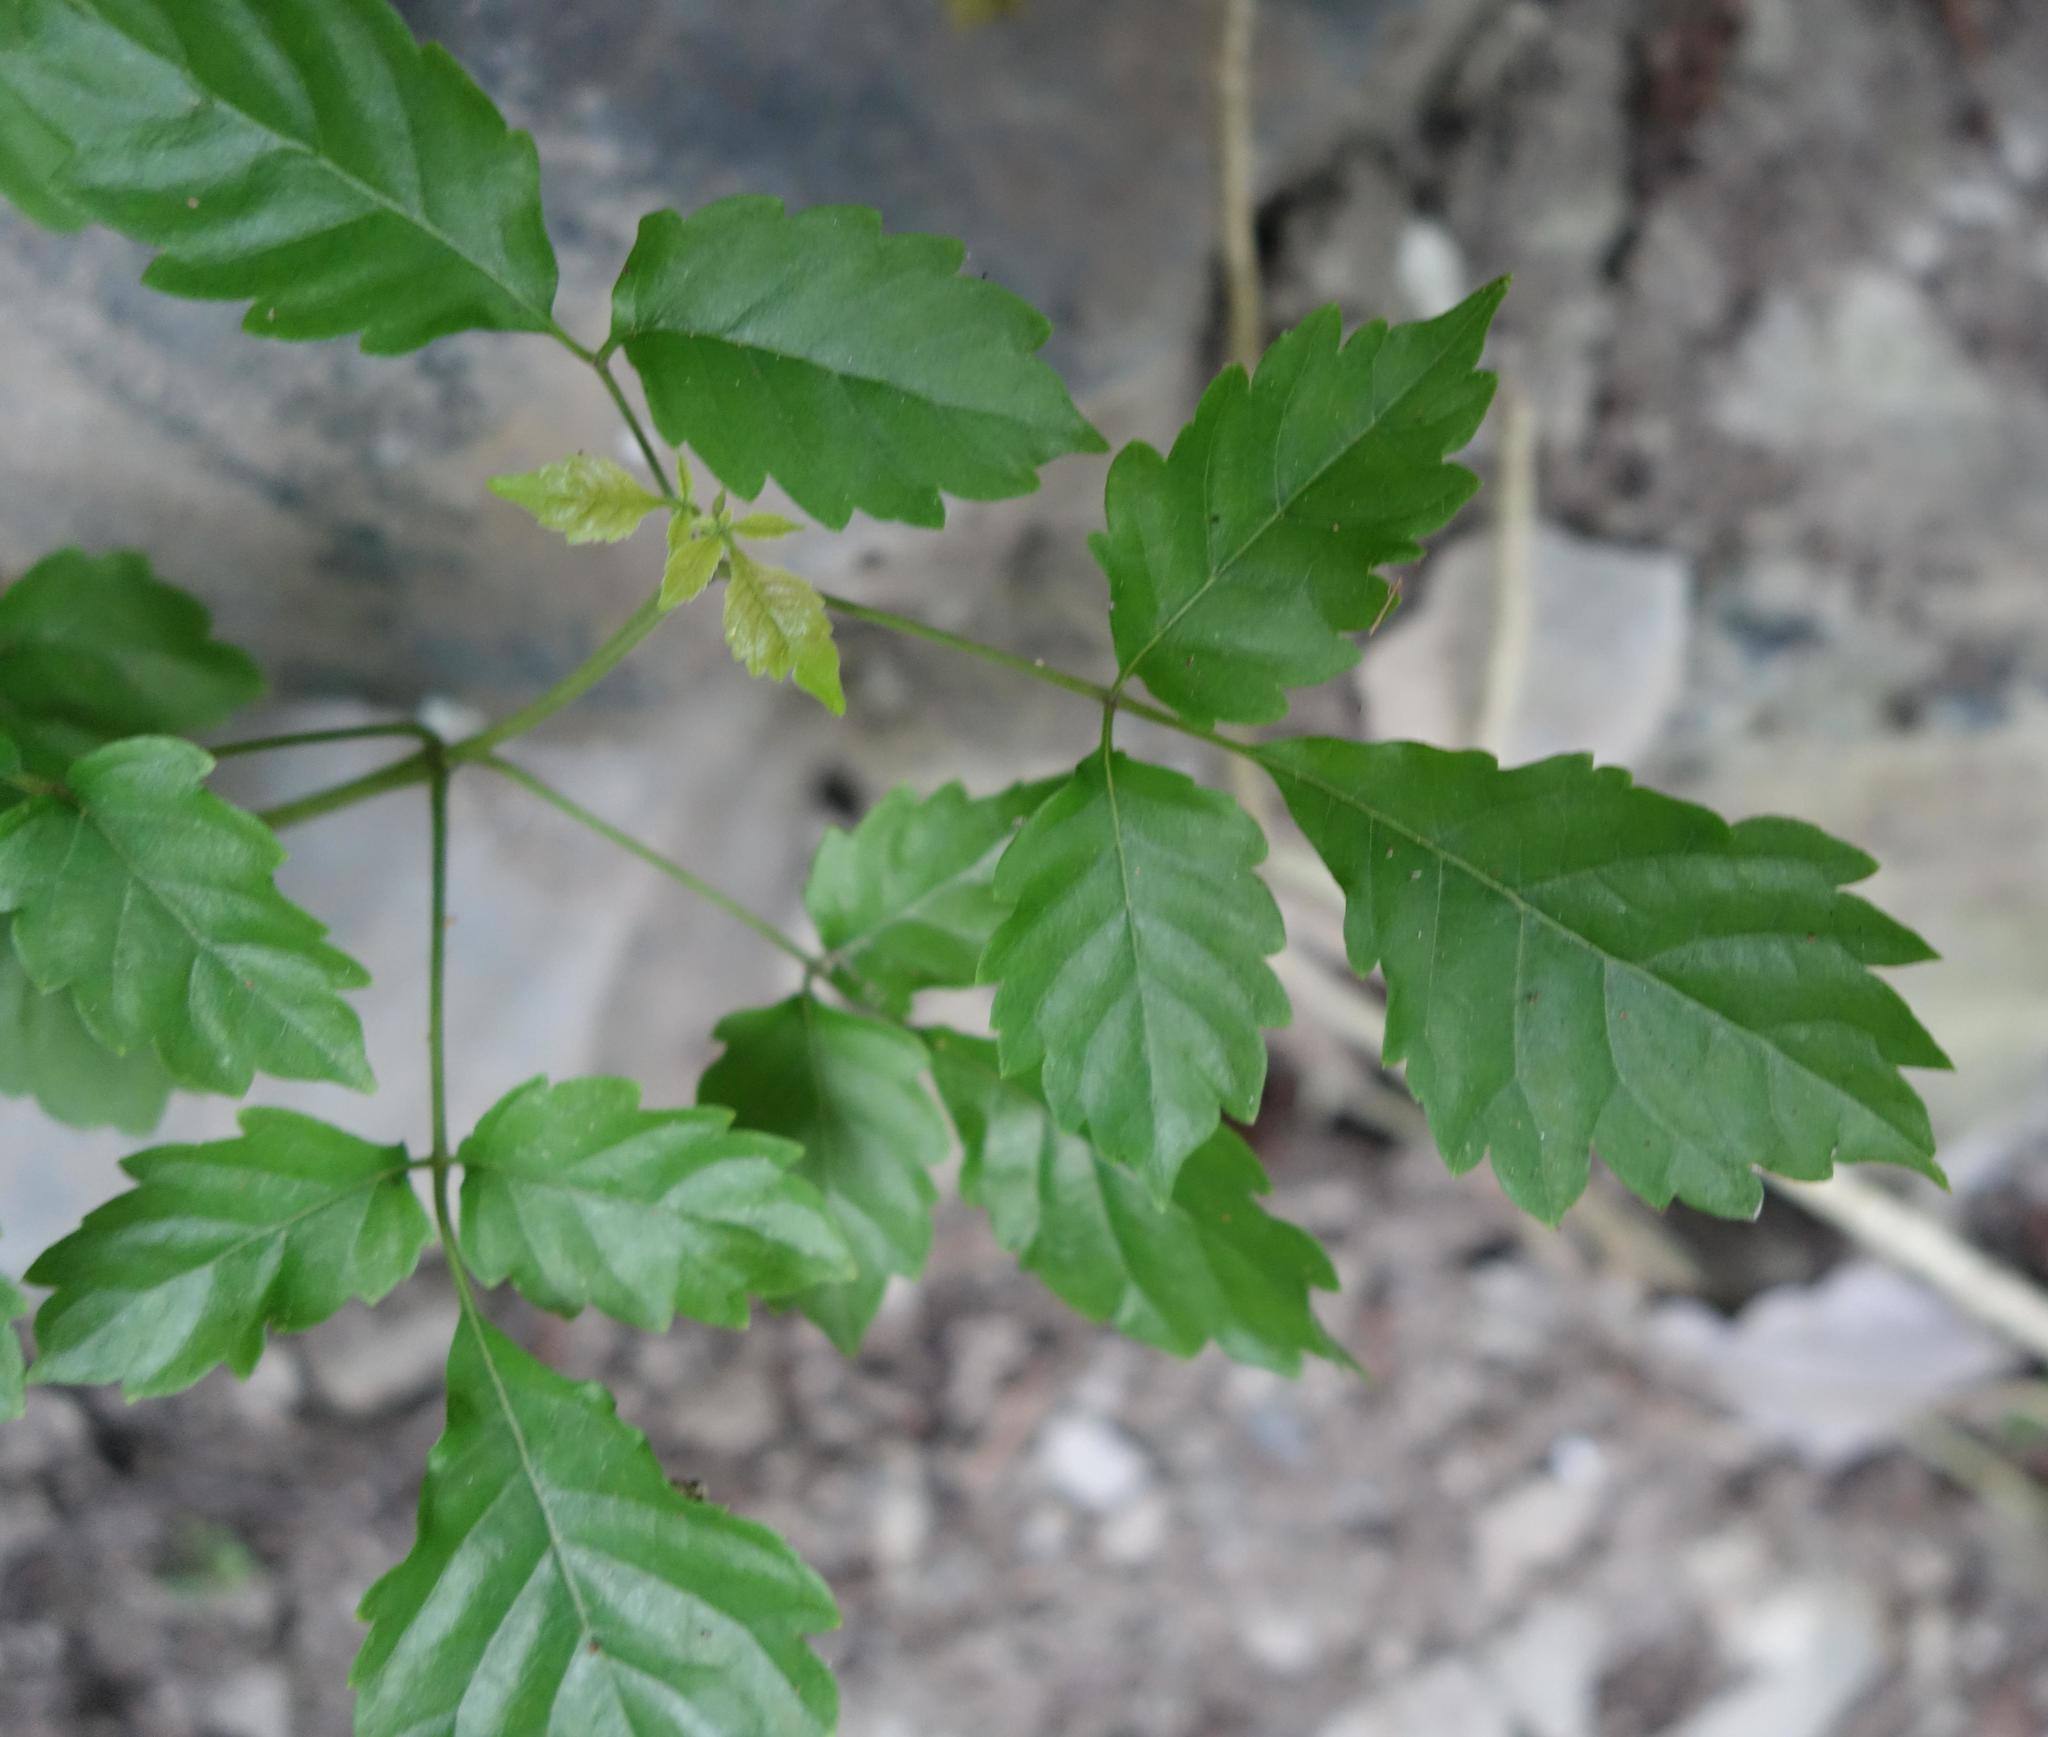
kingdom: Plantae
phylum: Tracheophyta
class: Magnoliopsida
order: Lamiales
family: Lamiaceae
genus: Vitex
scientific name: Vitex quinata
